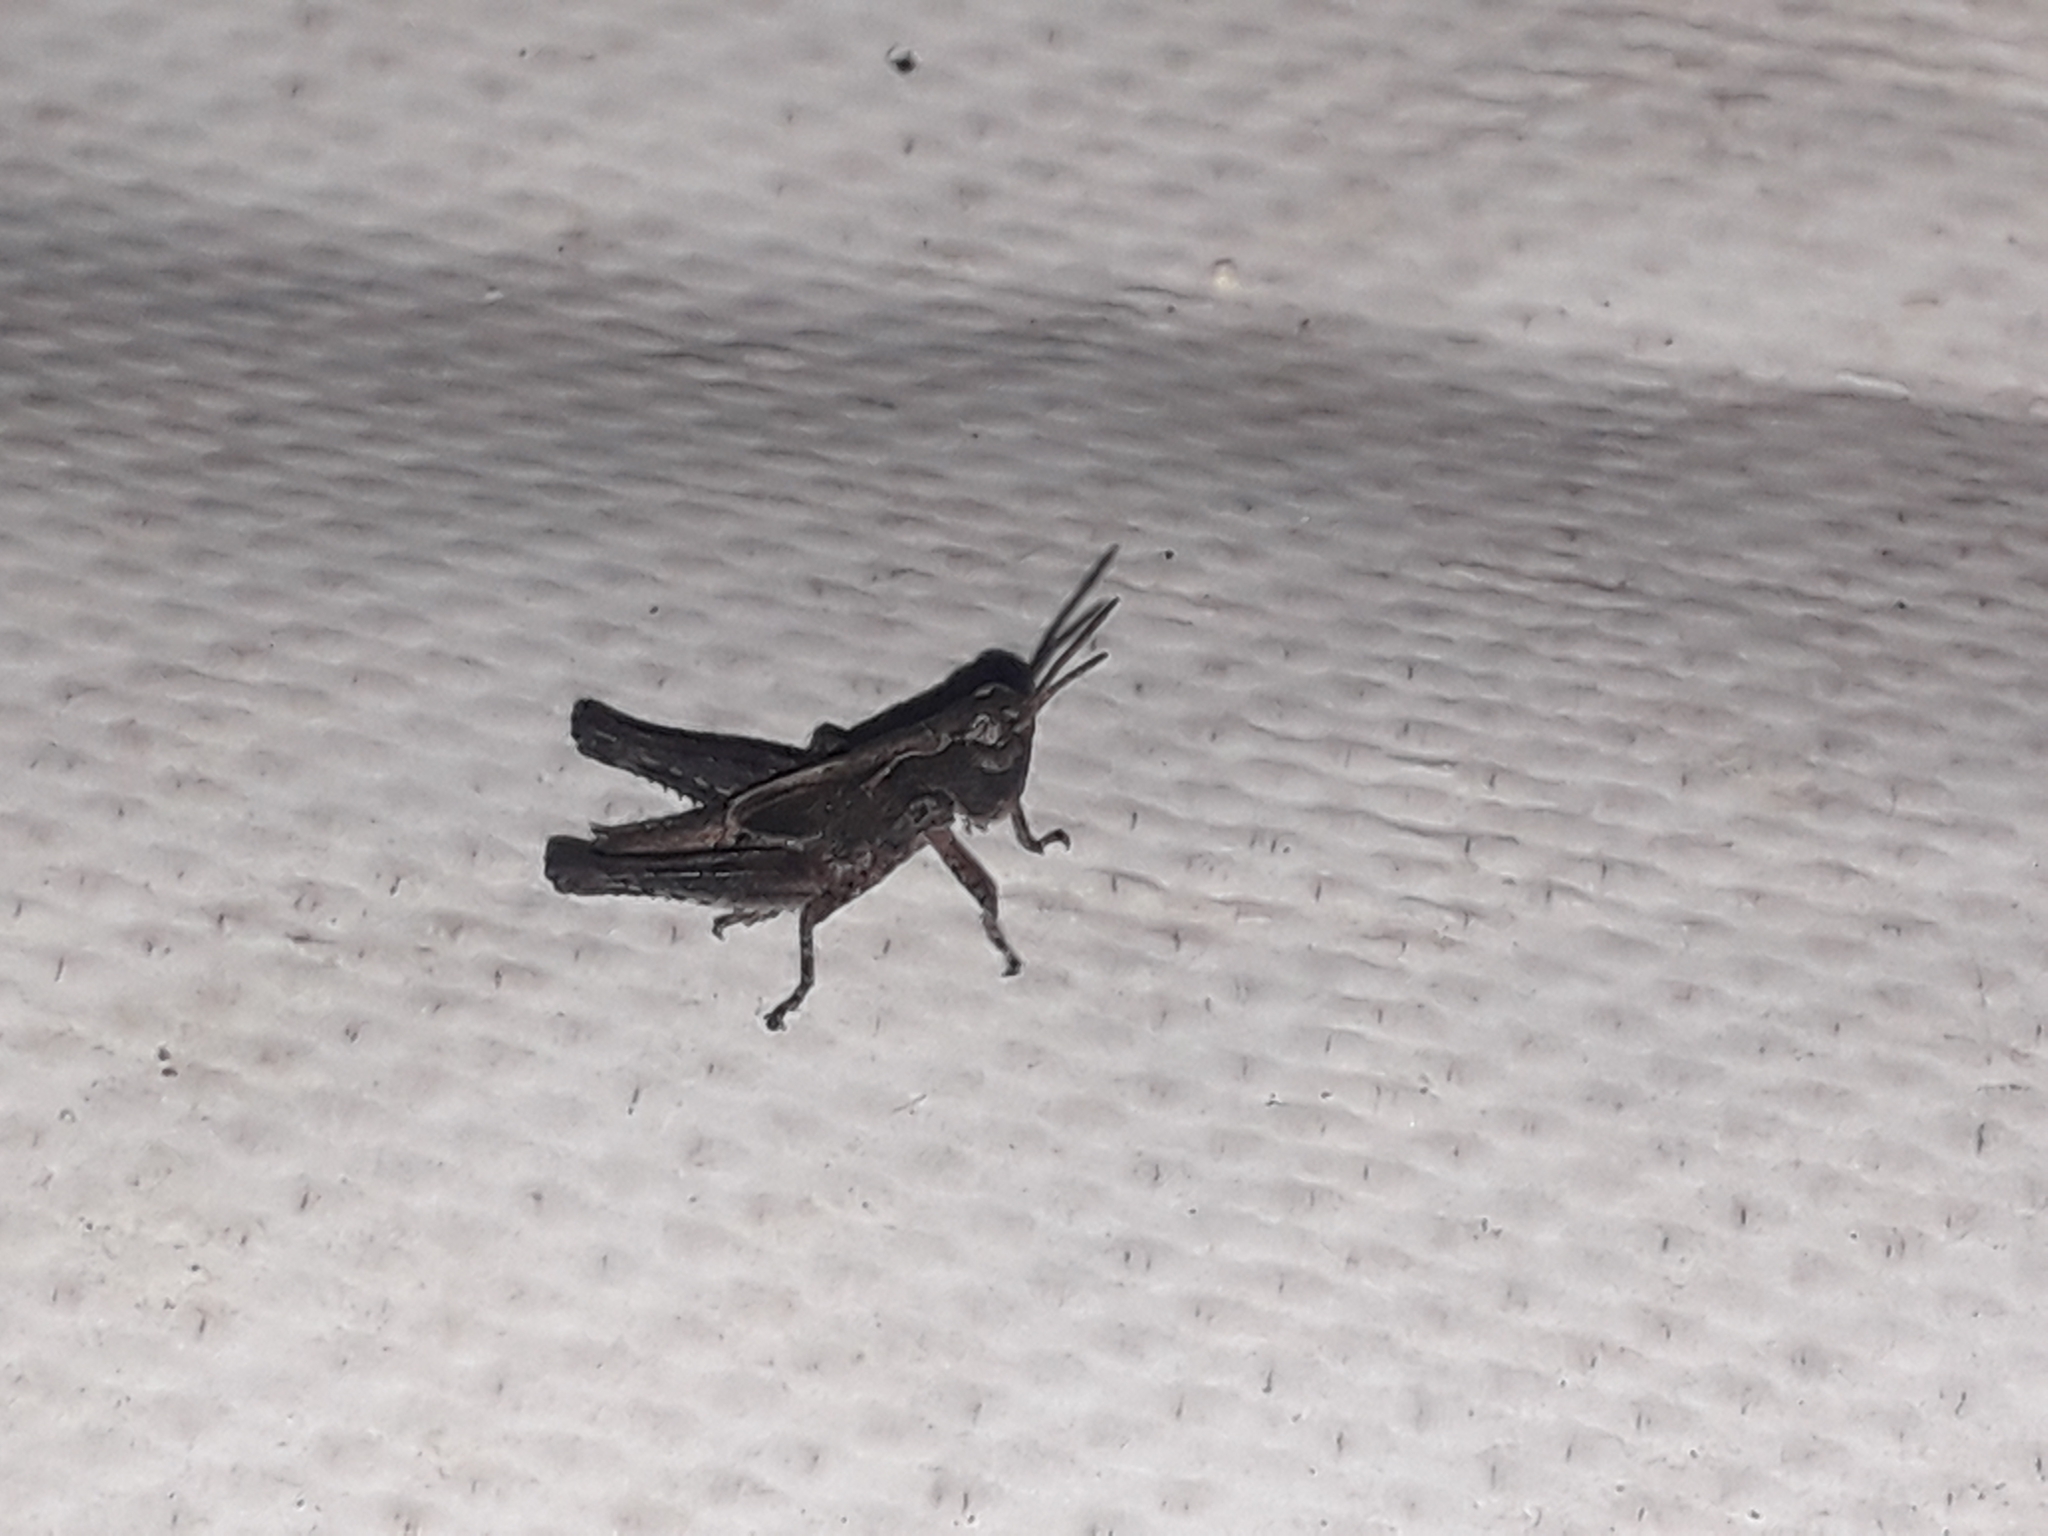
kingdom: Animalia
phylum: Arthropoda
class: Insecta
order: Orthoptera
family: Acrididae
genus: Orphulella
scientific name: Orphulella punctata
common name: Slant-faced grasshopper
